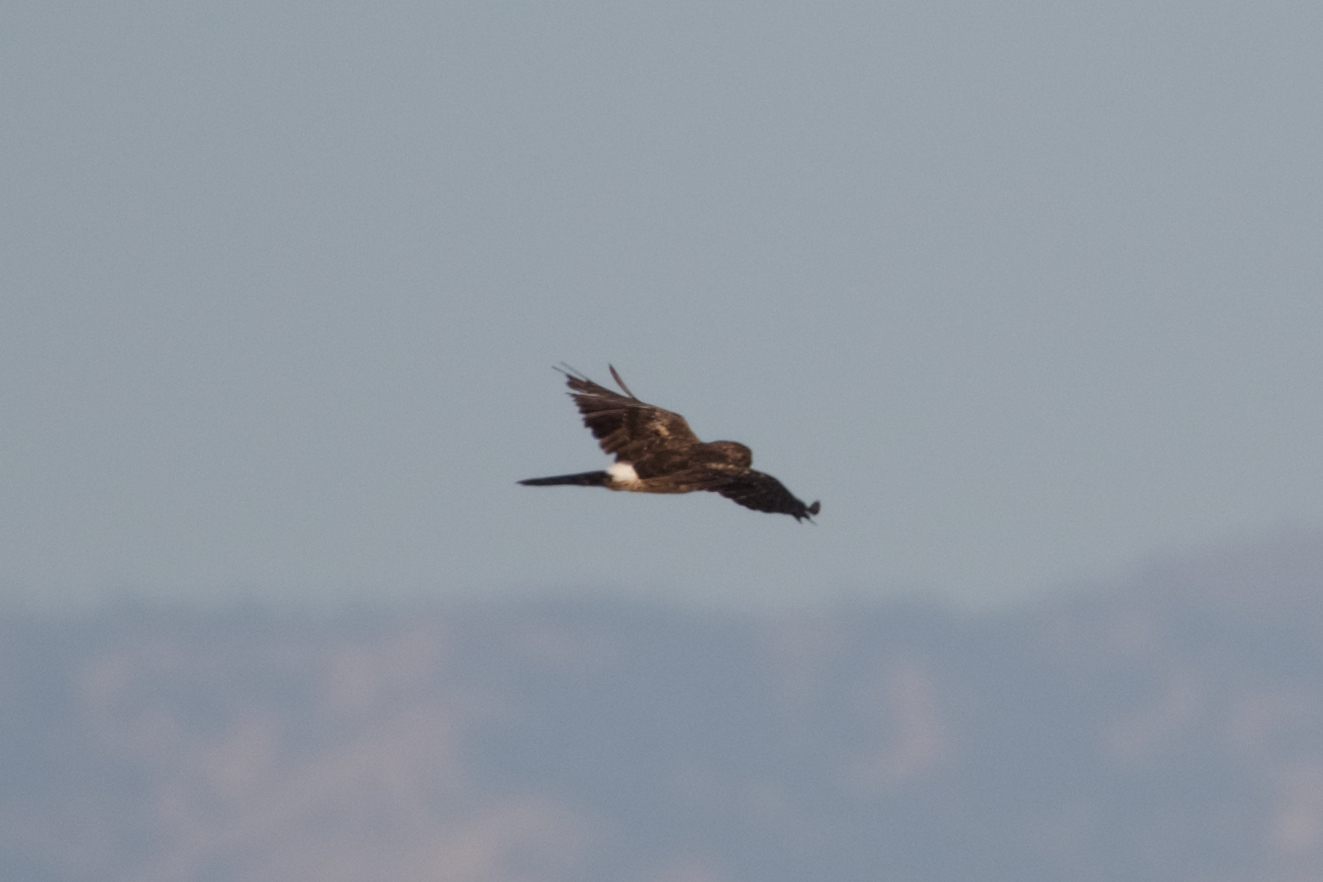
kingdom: Animalia
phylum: Chordata
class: Aves
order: Accipitriformes
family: Accipitridae
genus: Circus
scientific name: Circus cyaneus
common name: Hen harrier
